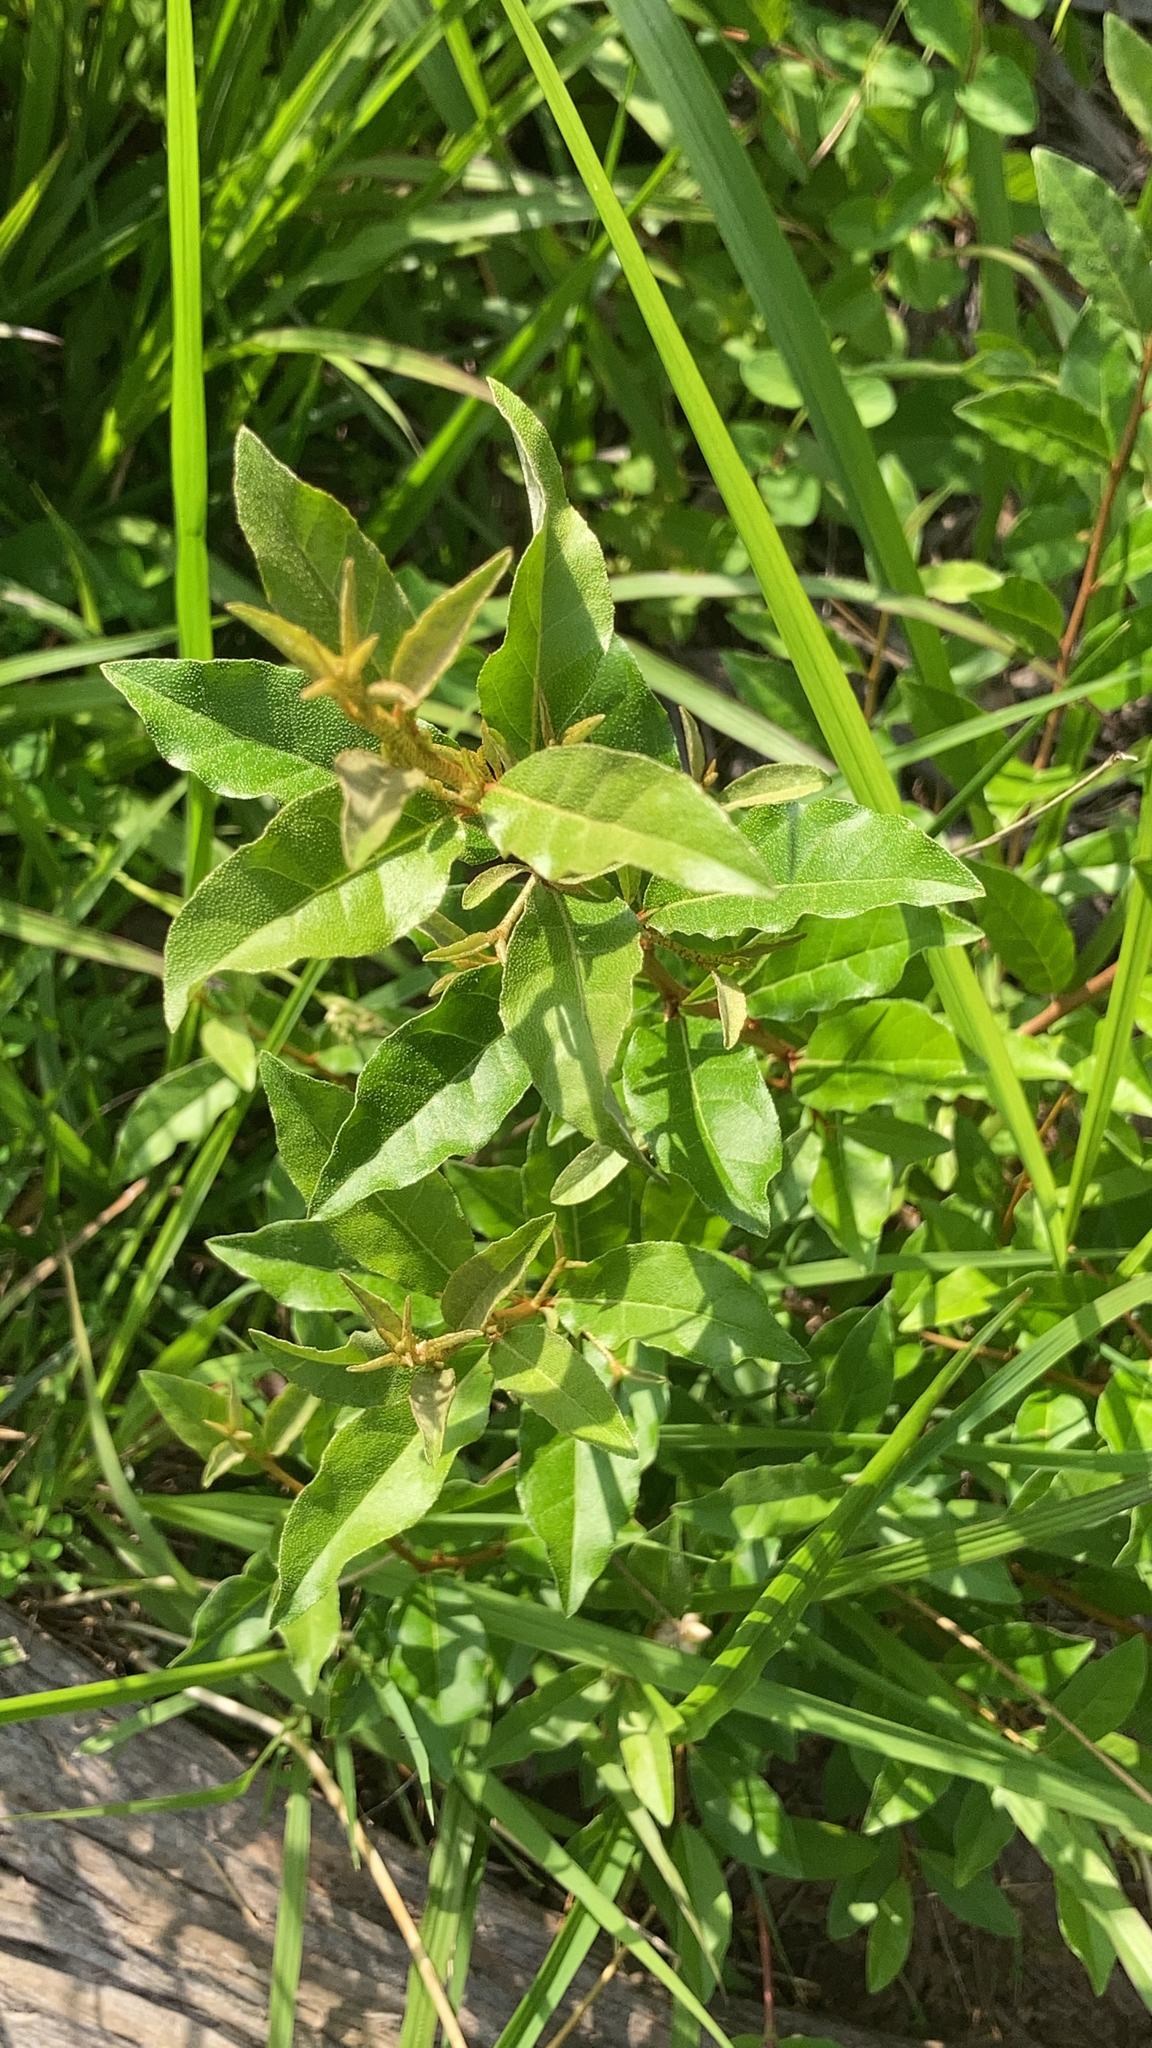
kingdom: Plantae
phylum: Tracheophyta
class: Magnoliopsida
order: Rosales
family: Elaeagnaceae
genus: Elaeagnus
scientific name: Elaeagnus umbellata
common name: Autumn olive
